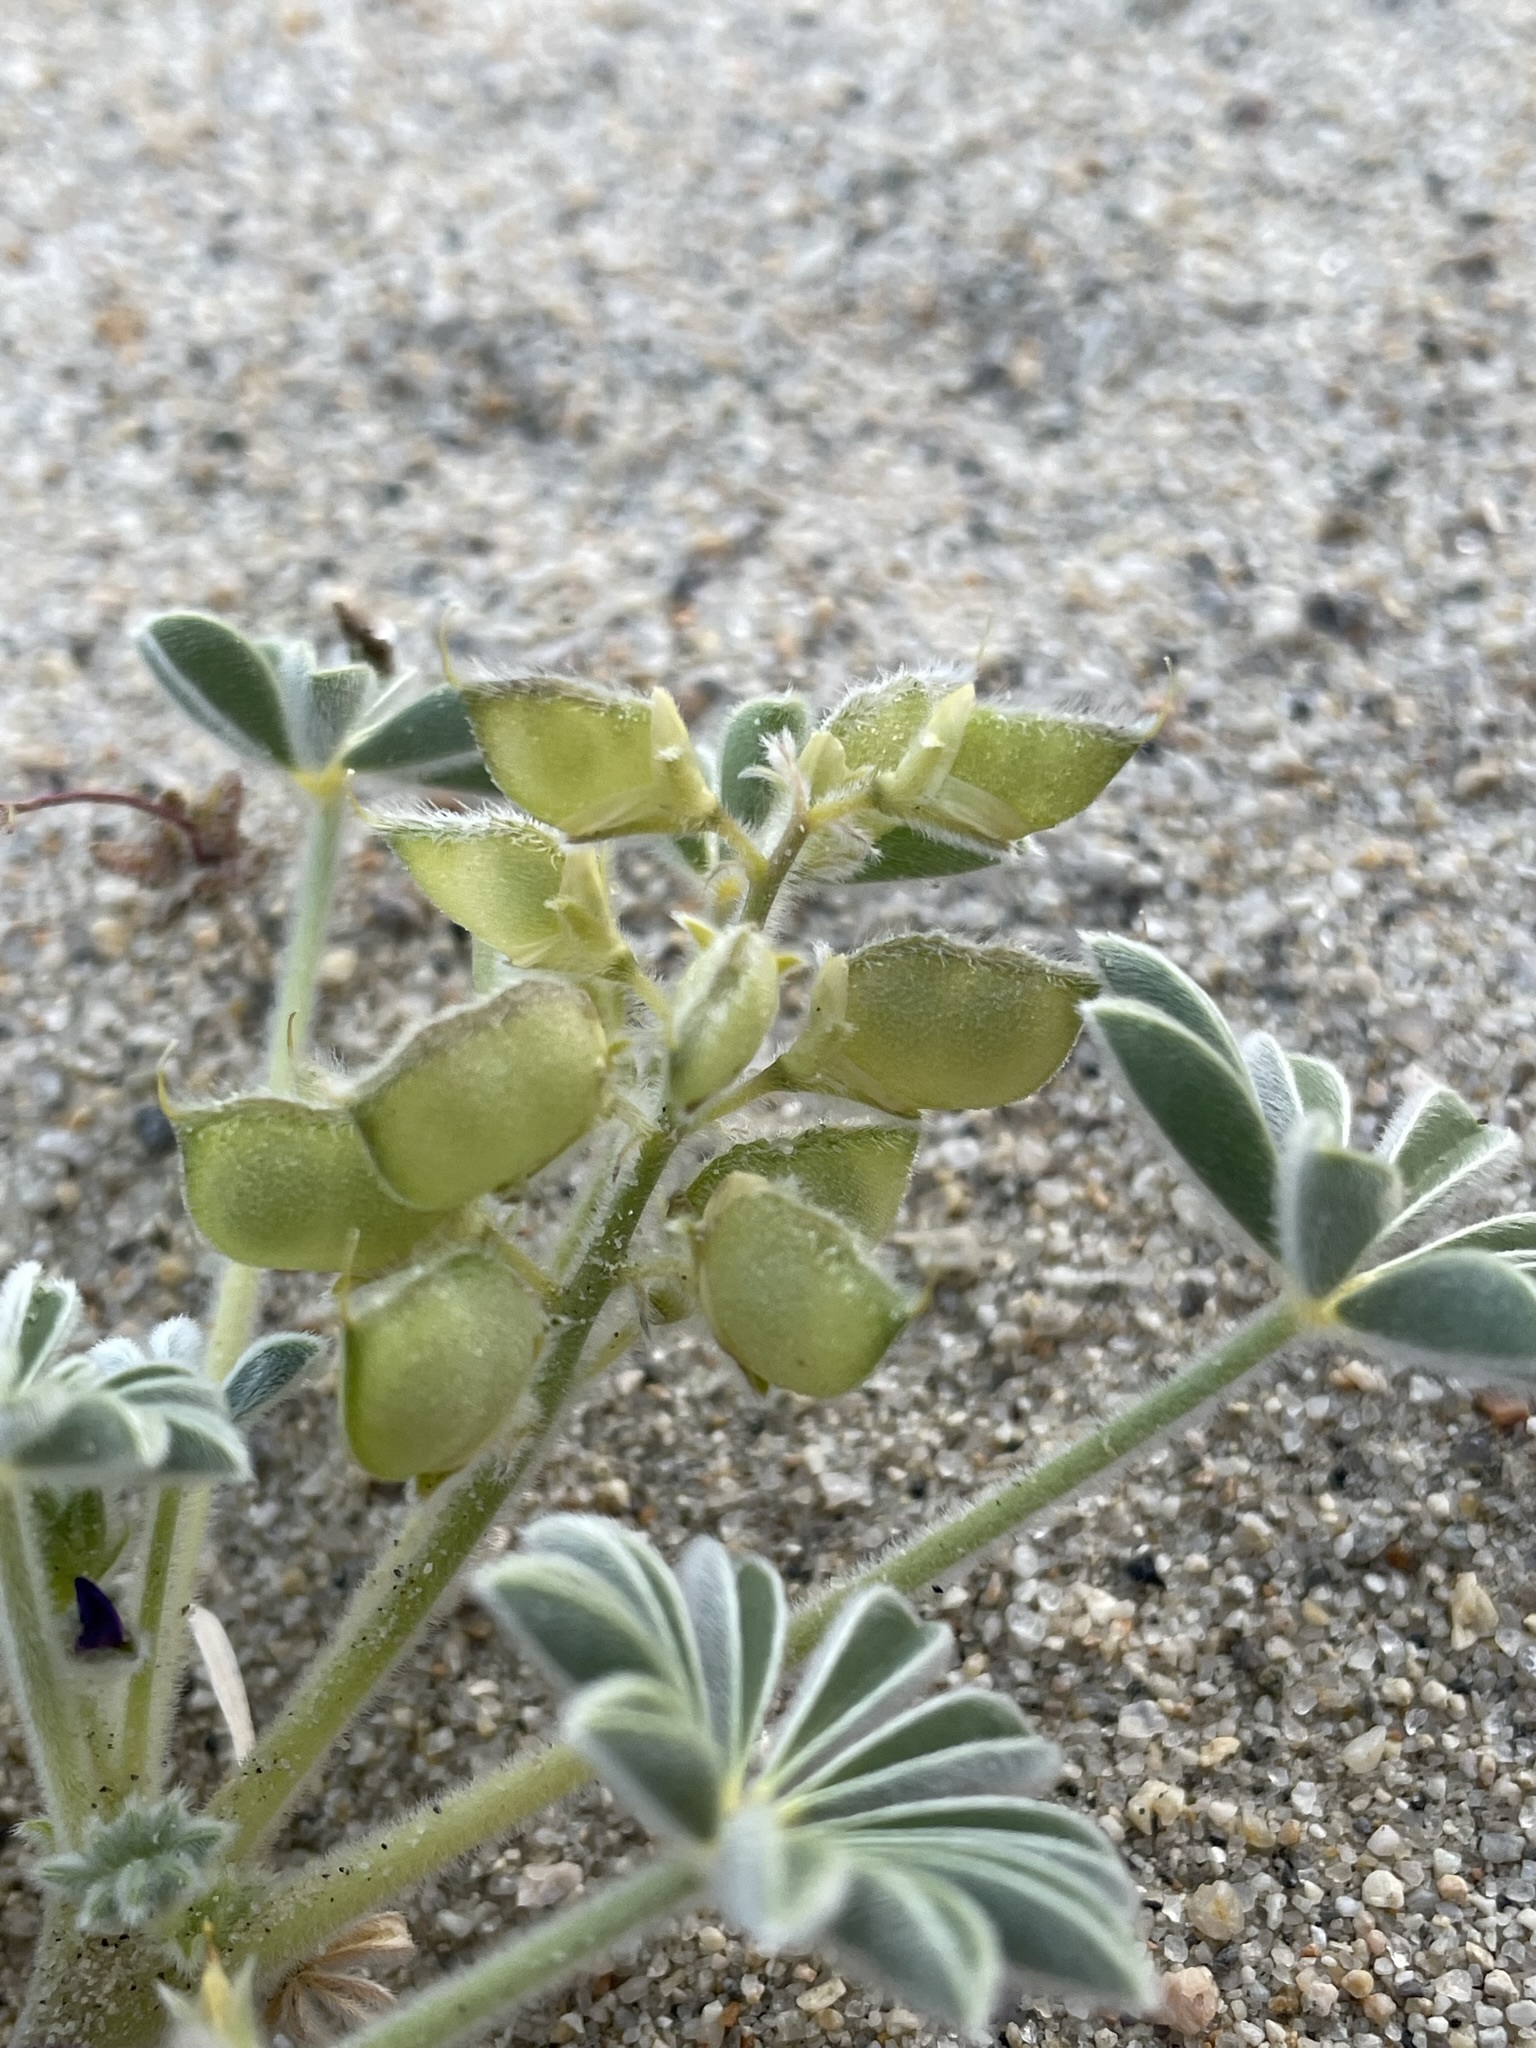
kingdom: Plantae
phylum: Tracheophyta
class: Magnoliopsida
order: Fabales
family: Fabaceae
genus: Lupinus
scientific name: Lupinus shockleyi
